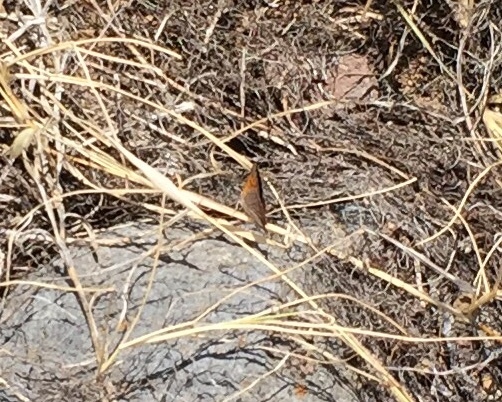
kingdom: Animalia
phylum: Arthropoda
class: Insecta
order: Lepidoptera
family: Lycaenidae
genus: Lycaena
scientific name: Lycaena phlaeas
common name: Small copper
